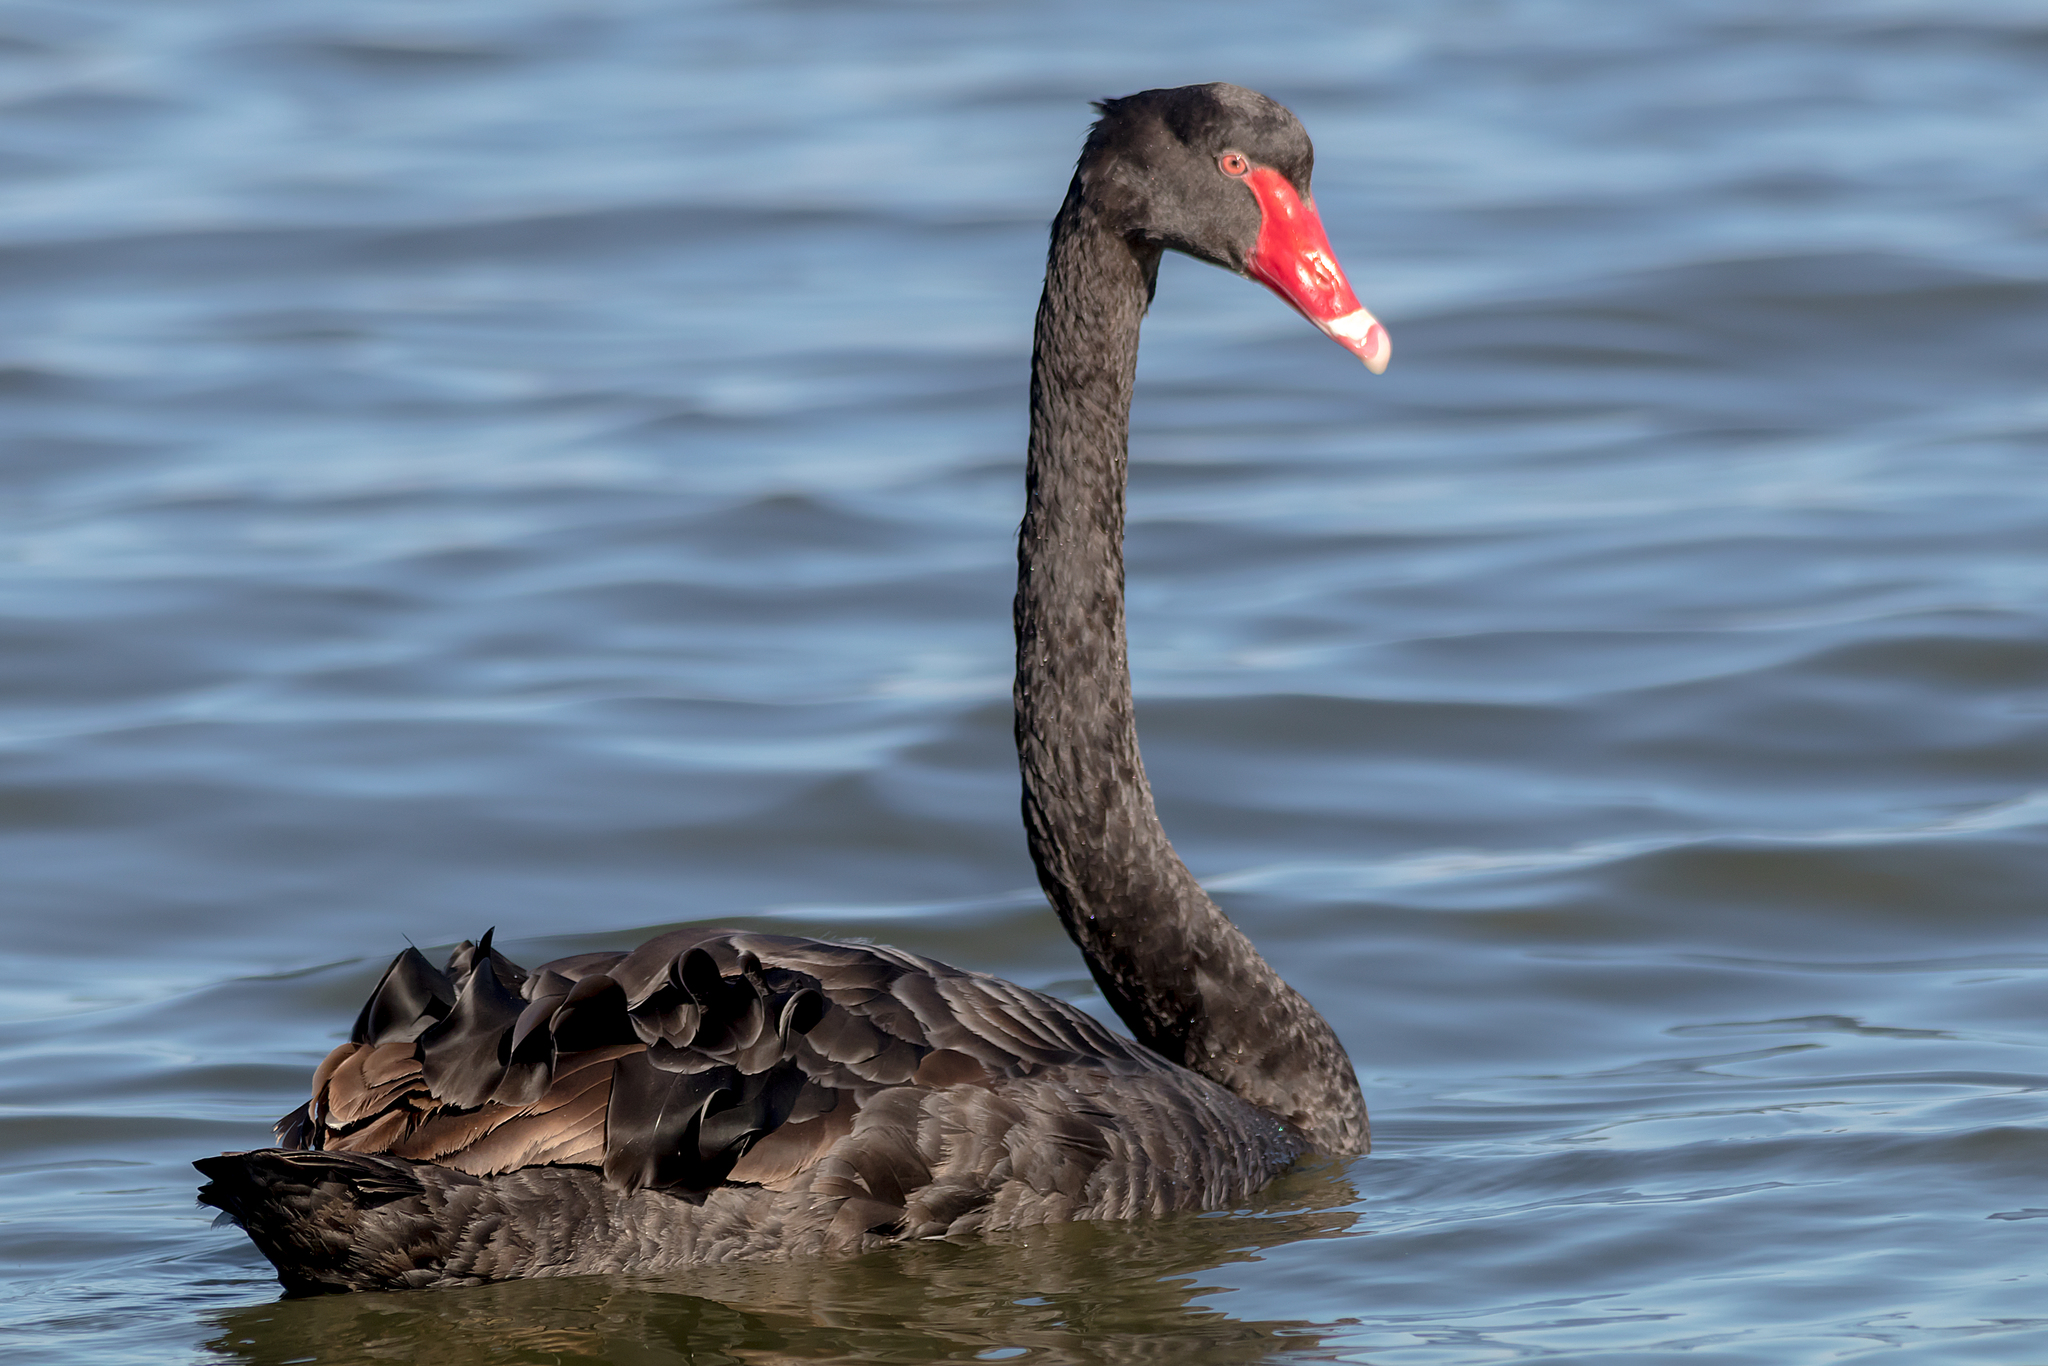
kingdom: Animalia
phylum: Chordata
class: Aves
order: Anseriformes
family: Anatidae
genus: Cygnus
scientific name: Cygnus atratus
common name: Black swan
